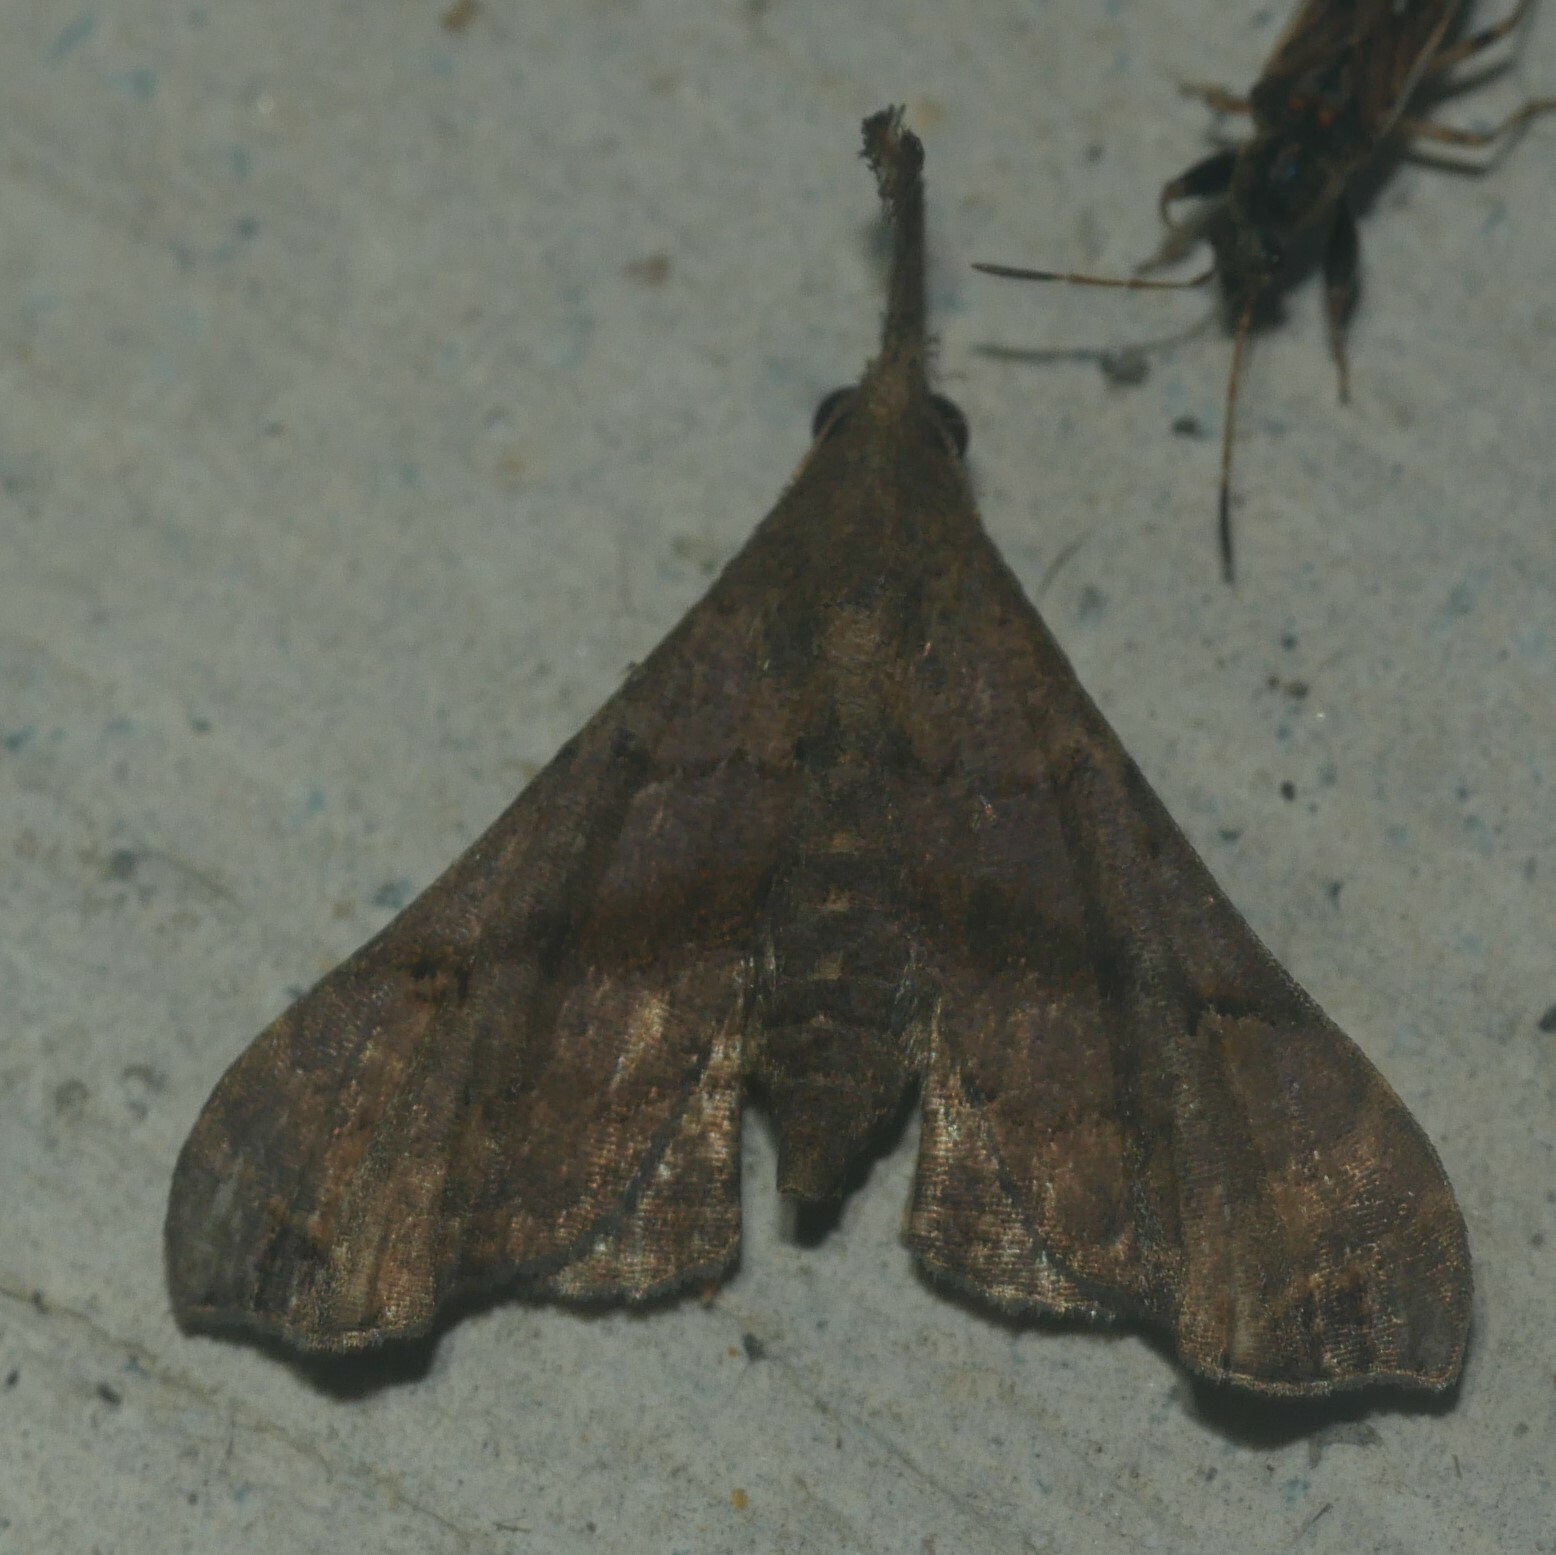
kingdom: Animalia
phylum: Arthropoda
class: Insecta
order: Lepidoptera
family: Erebidae
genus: Palthis
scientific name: Palthis asopialis
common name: Faint-spotted palthis moth
